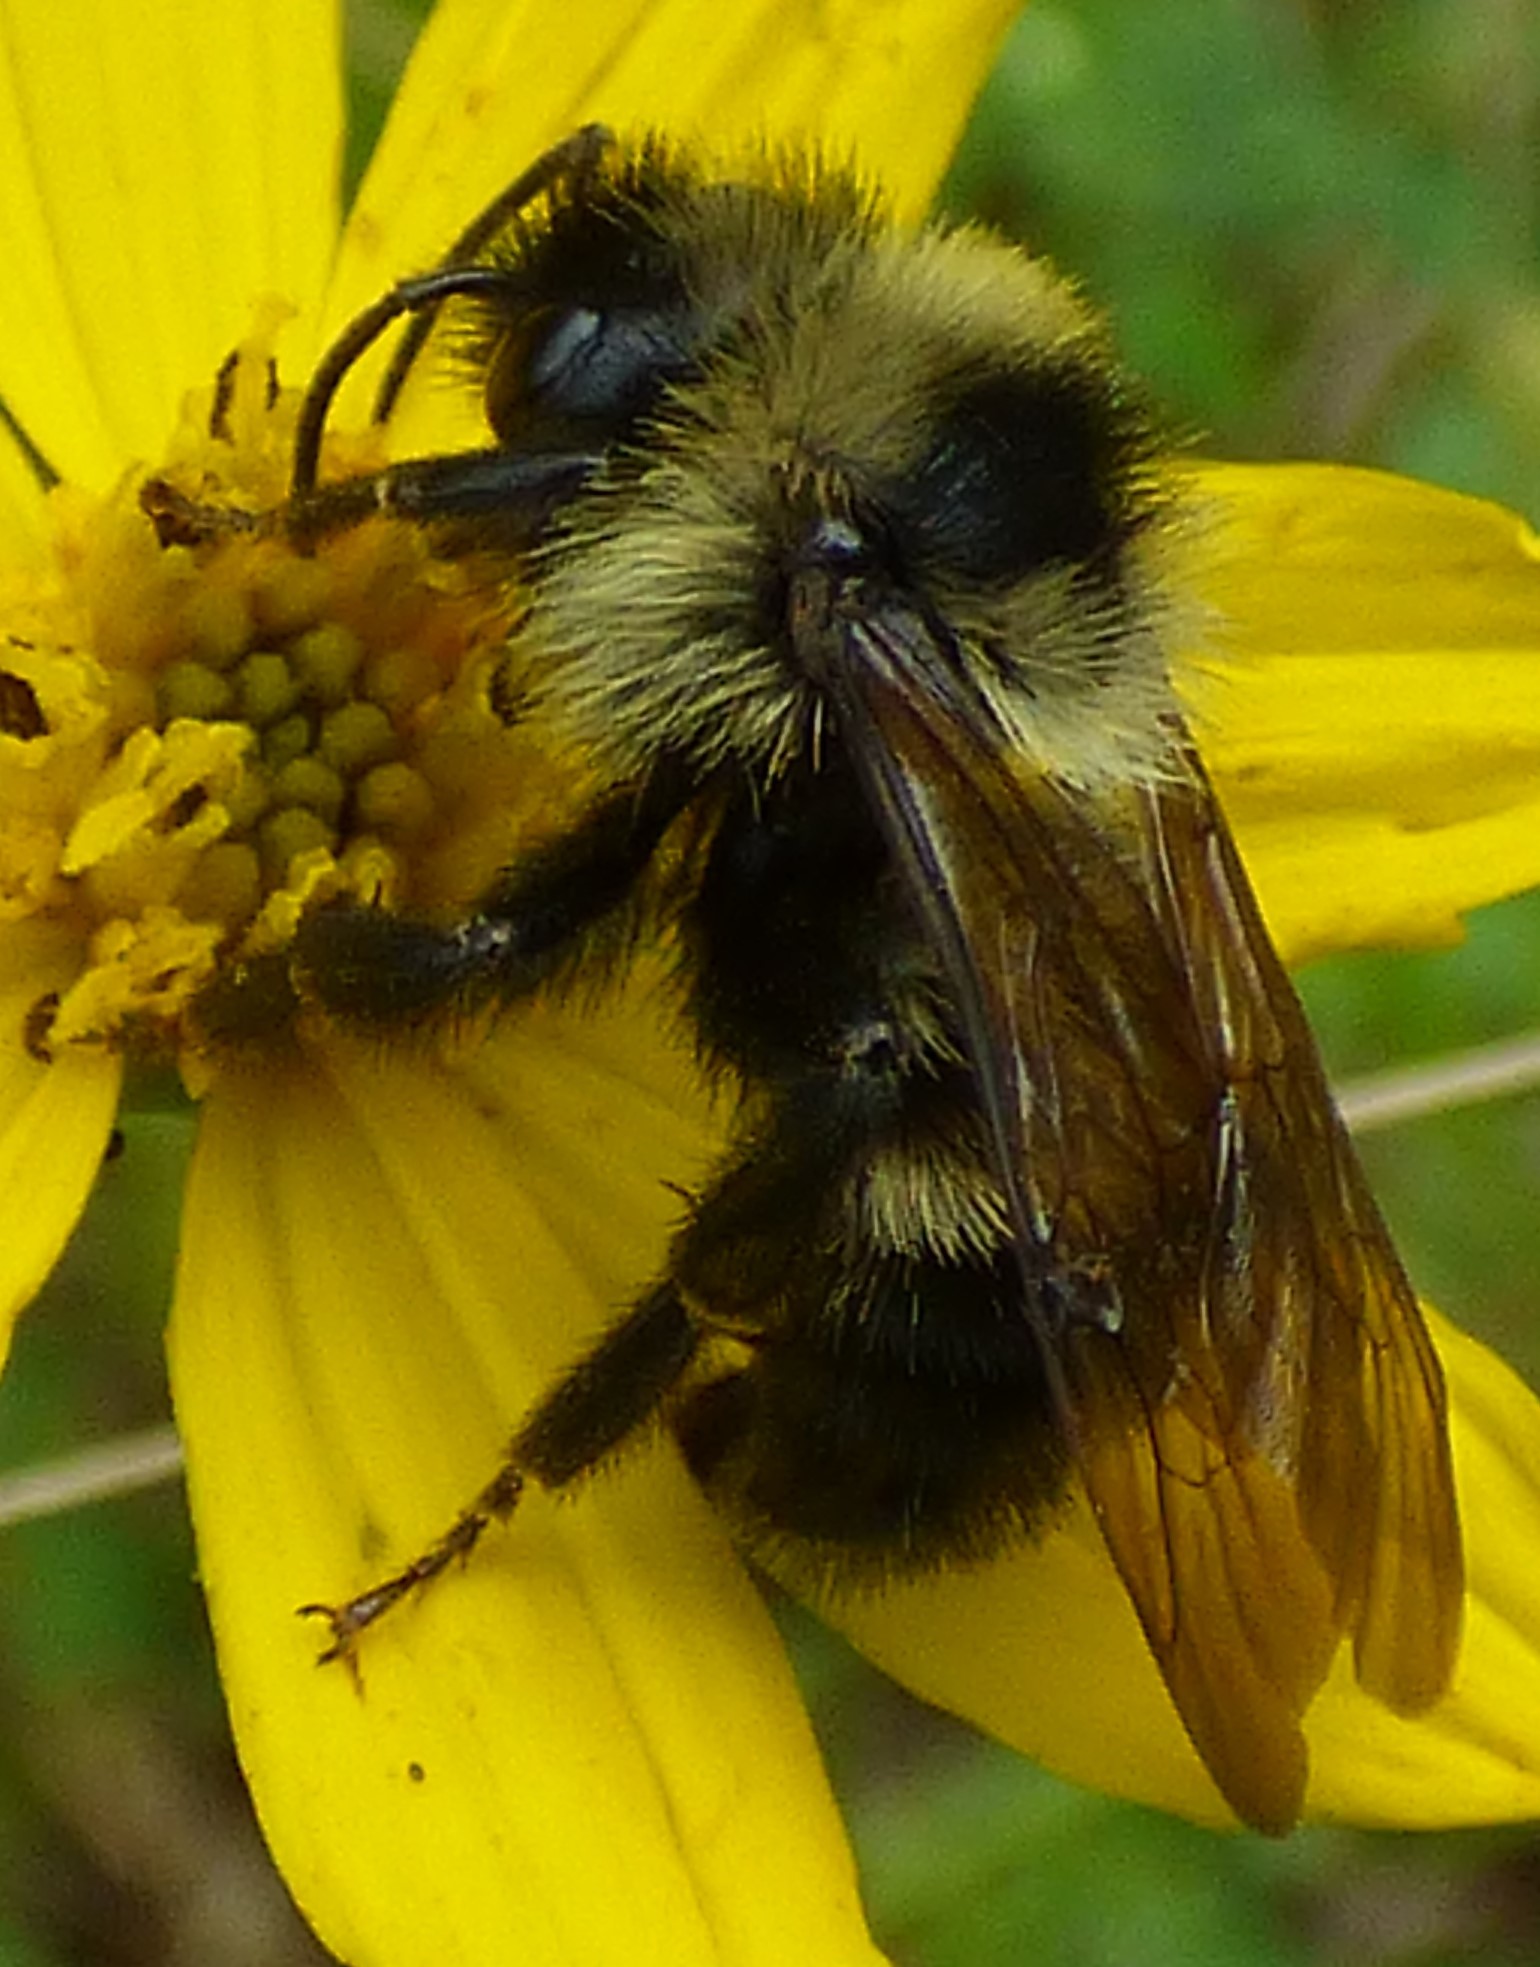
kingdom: Animalia
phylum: Arthropoda
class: Insecta
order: Hymenoptera
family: Apidae
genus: Bombus
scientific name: Bombus citrinus
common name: Lemon cuckoo bumble bee
